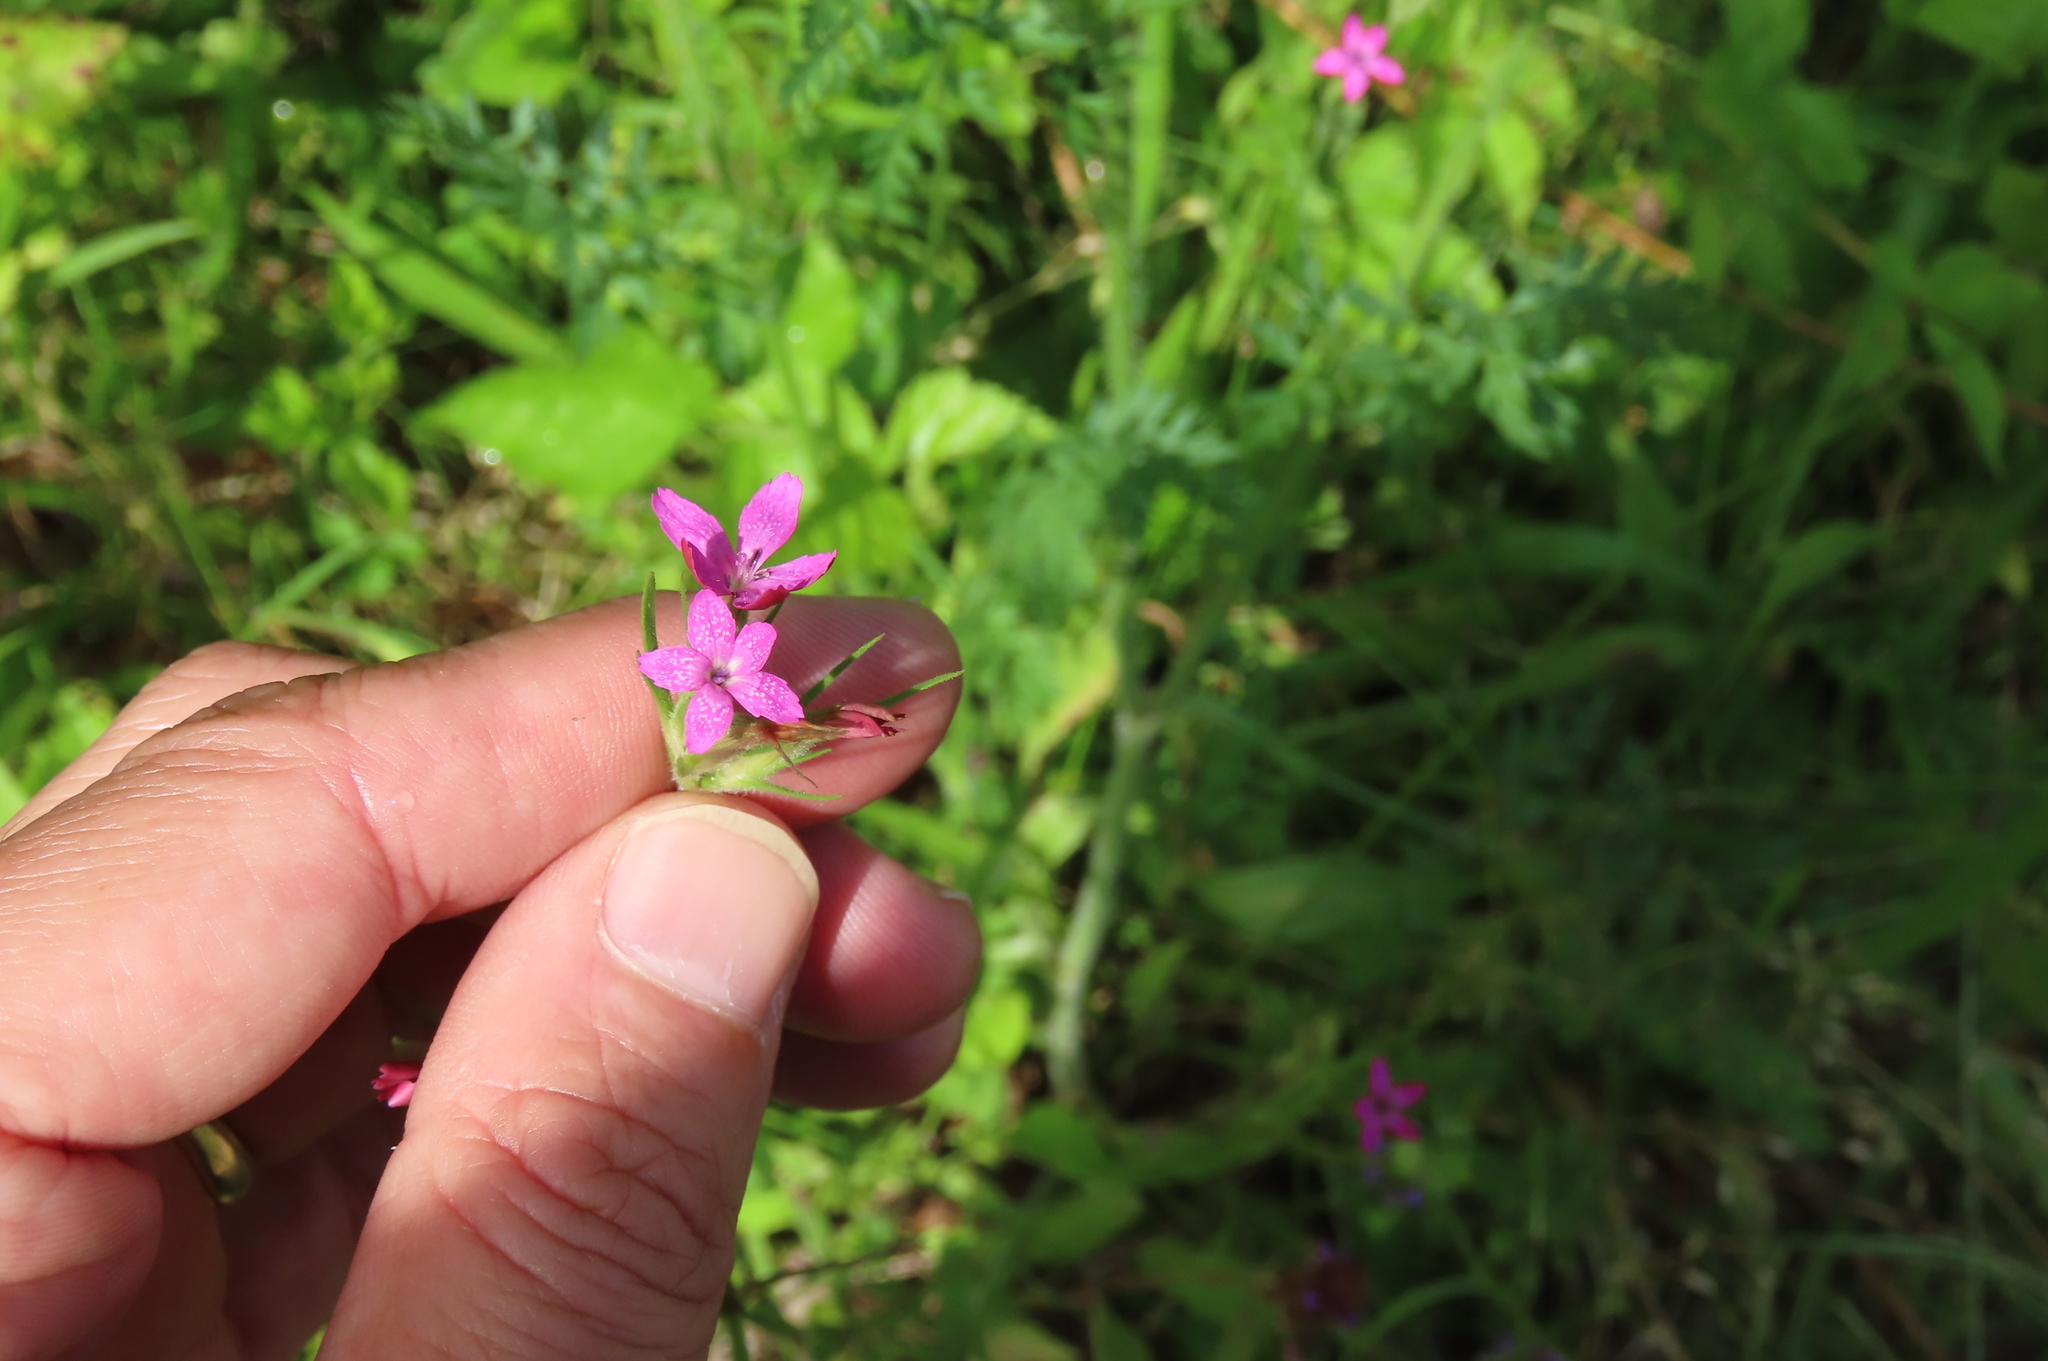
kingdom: Plantae
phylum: Tracheophyta
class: Magnoliopsida
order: Caryophyllales
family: Caryophyllaceae
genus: Dianthus
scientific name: Dianthus armeria
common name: Deptford pink
